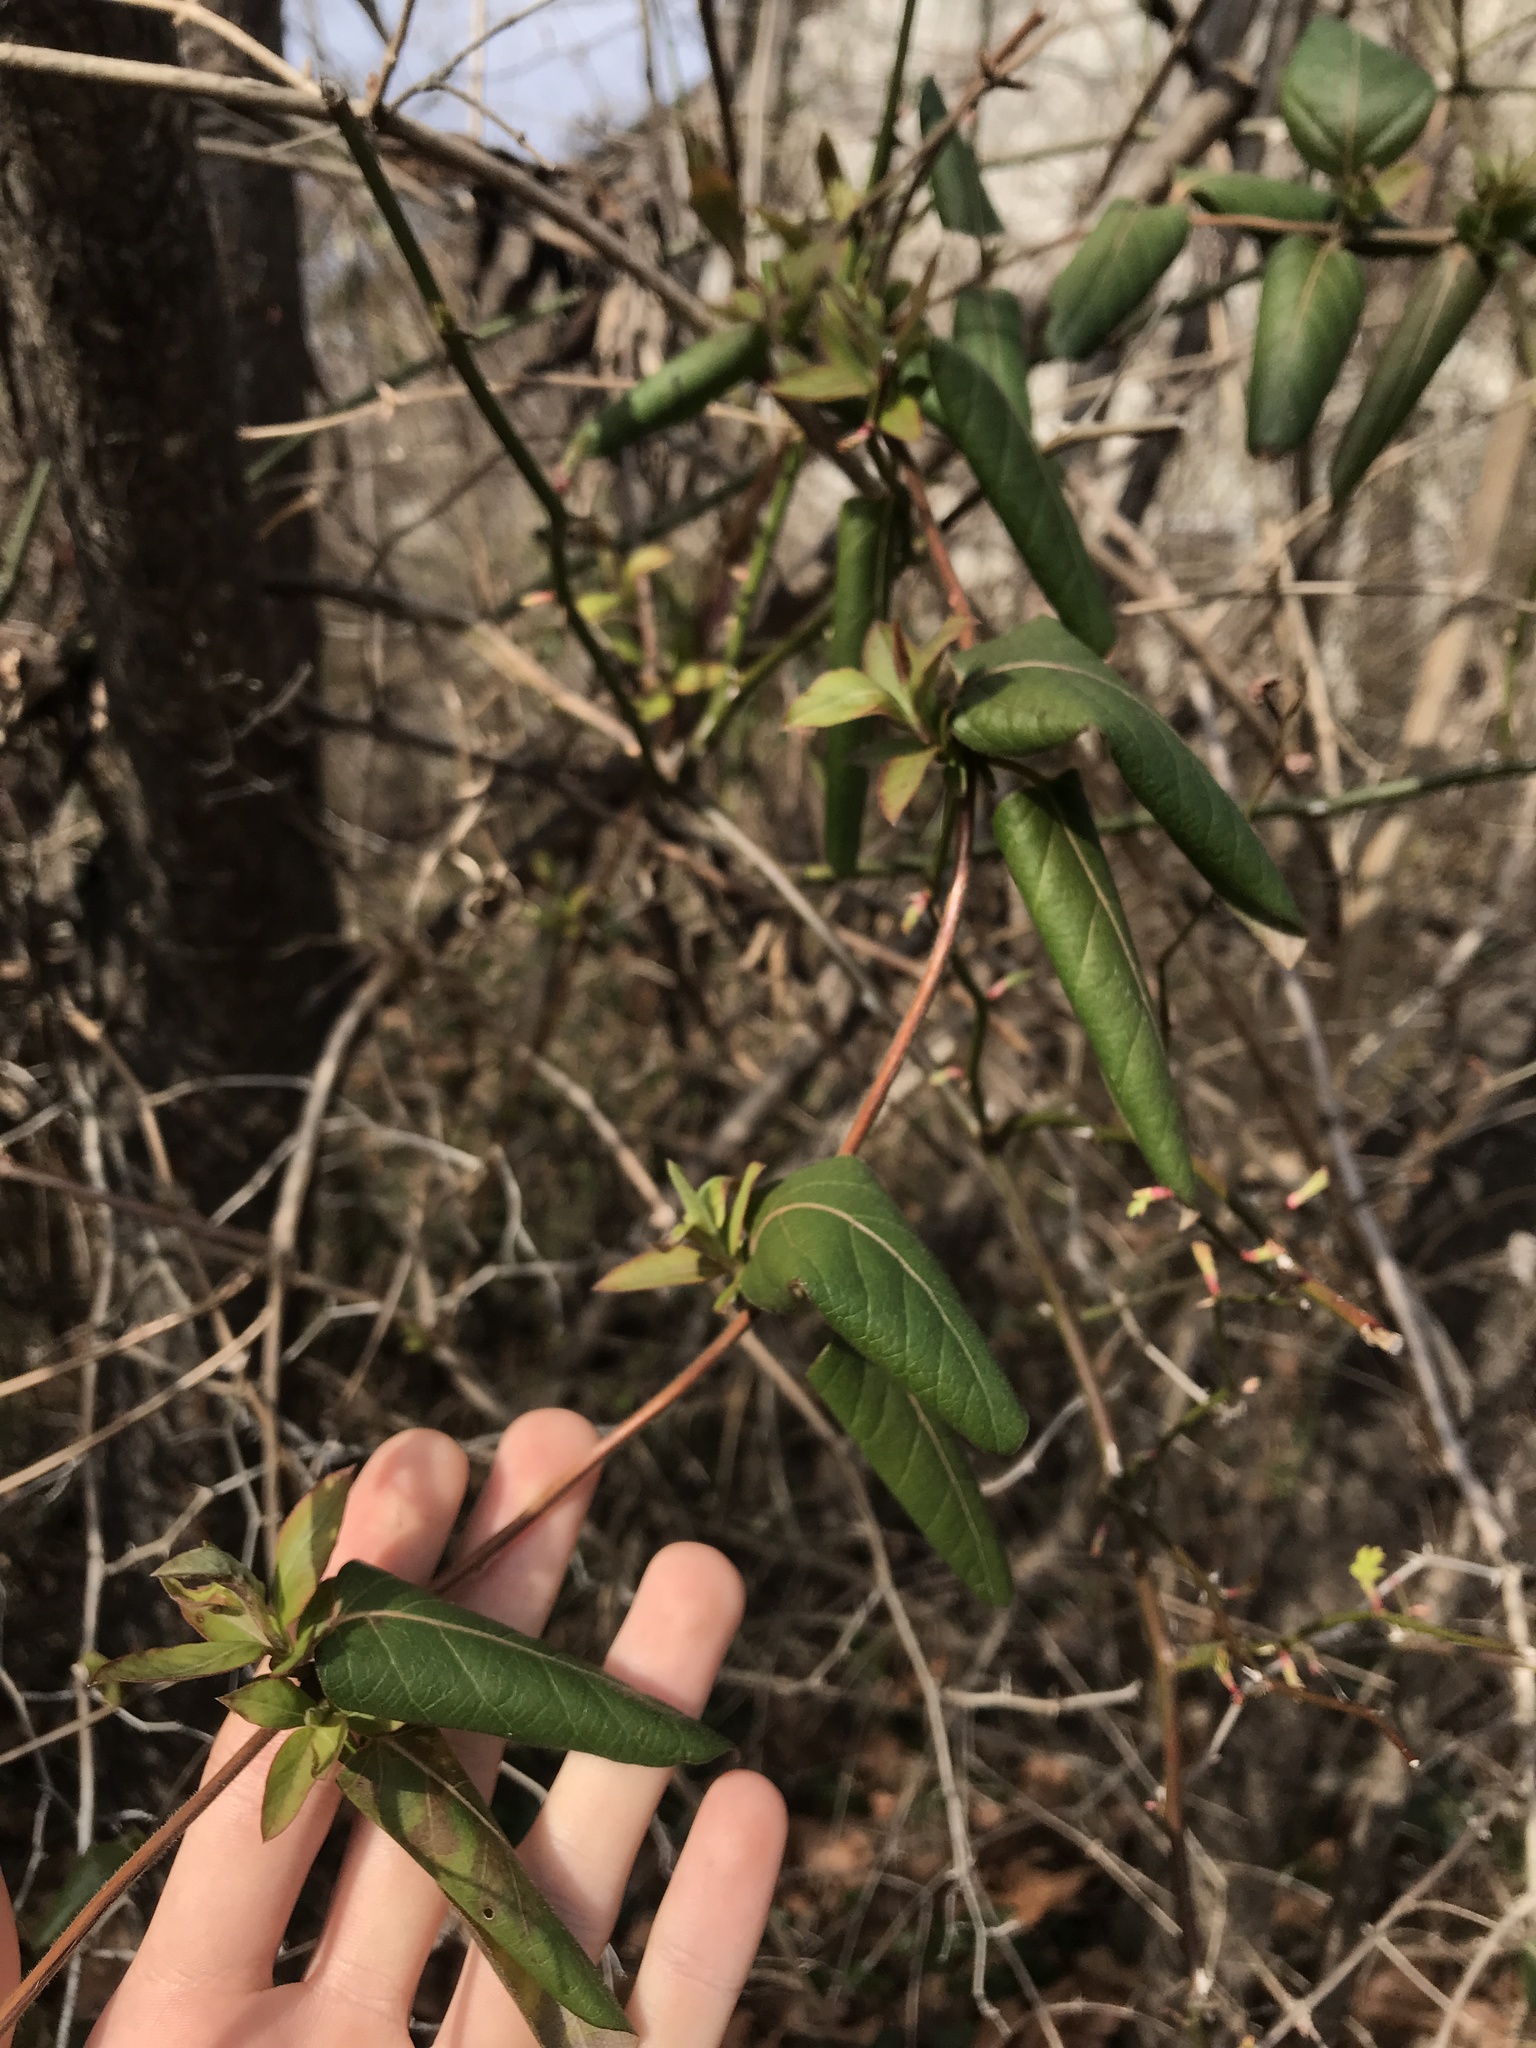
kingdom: Plantae
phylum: Tracheophyta
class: Magnoliopsida
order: Dipsacales
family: Caprifoliaceae
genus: Lonicera
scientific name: Lonicera japonica
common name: Japanese honeysuckle
